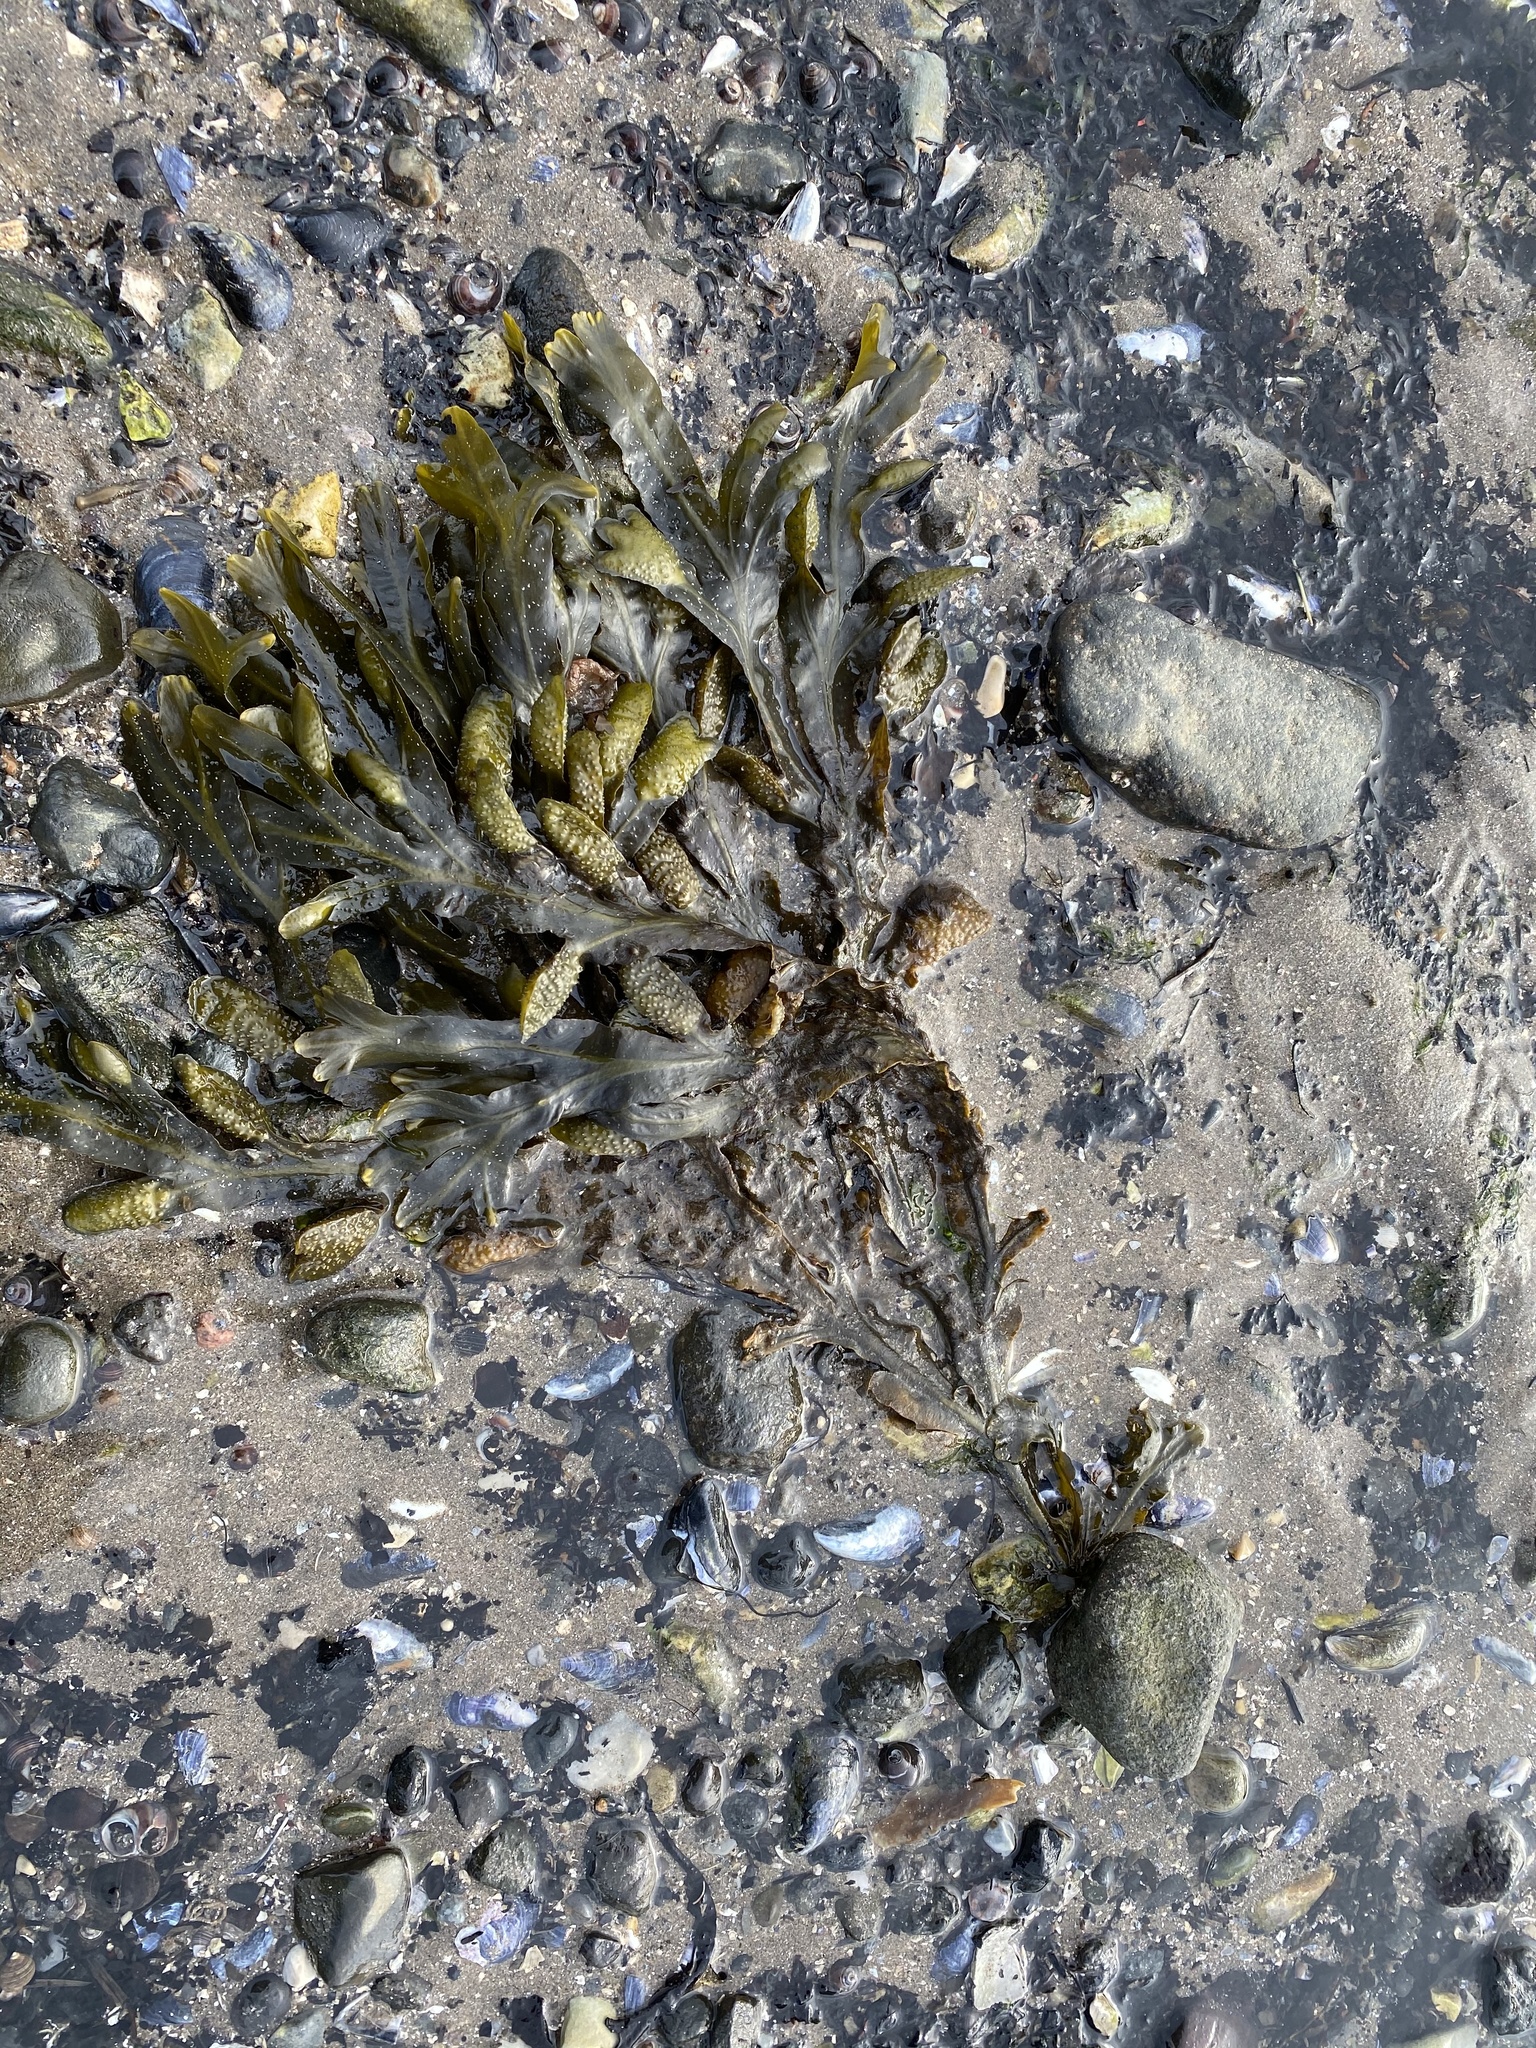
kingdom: Chromista
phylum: Ochrophyta
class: Phaeophyceae
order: Fucales
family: Fucaceae
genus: Fucus
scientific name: Fucus
